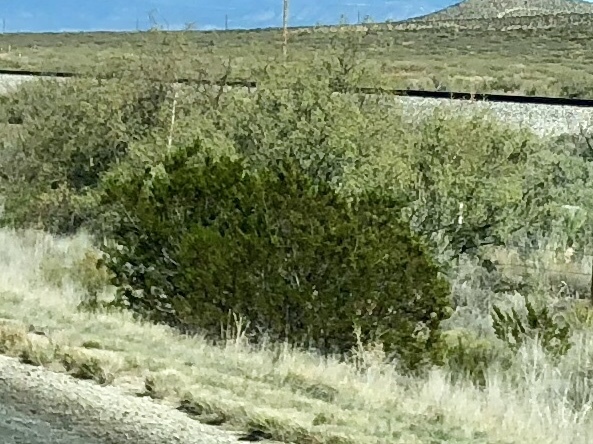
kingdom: Plantae
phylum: Tracheophyta
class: Magnoliopsida
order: Zygophyllales
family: Zygophyllaceae
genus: Larrea
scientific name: Larrea tridentata
